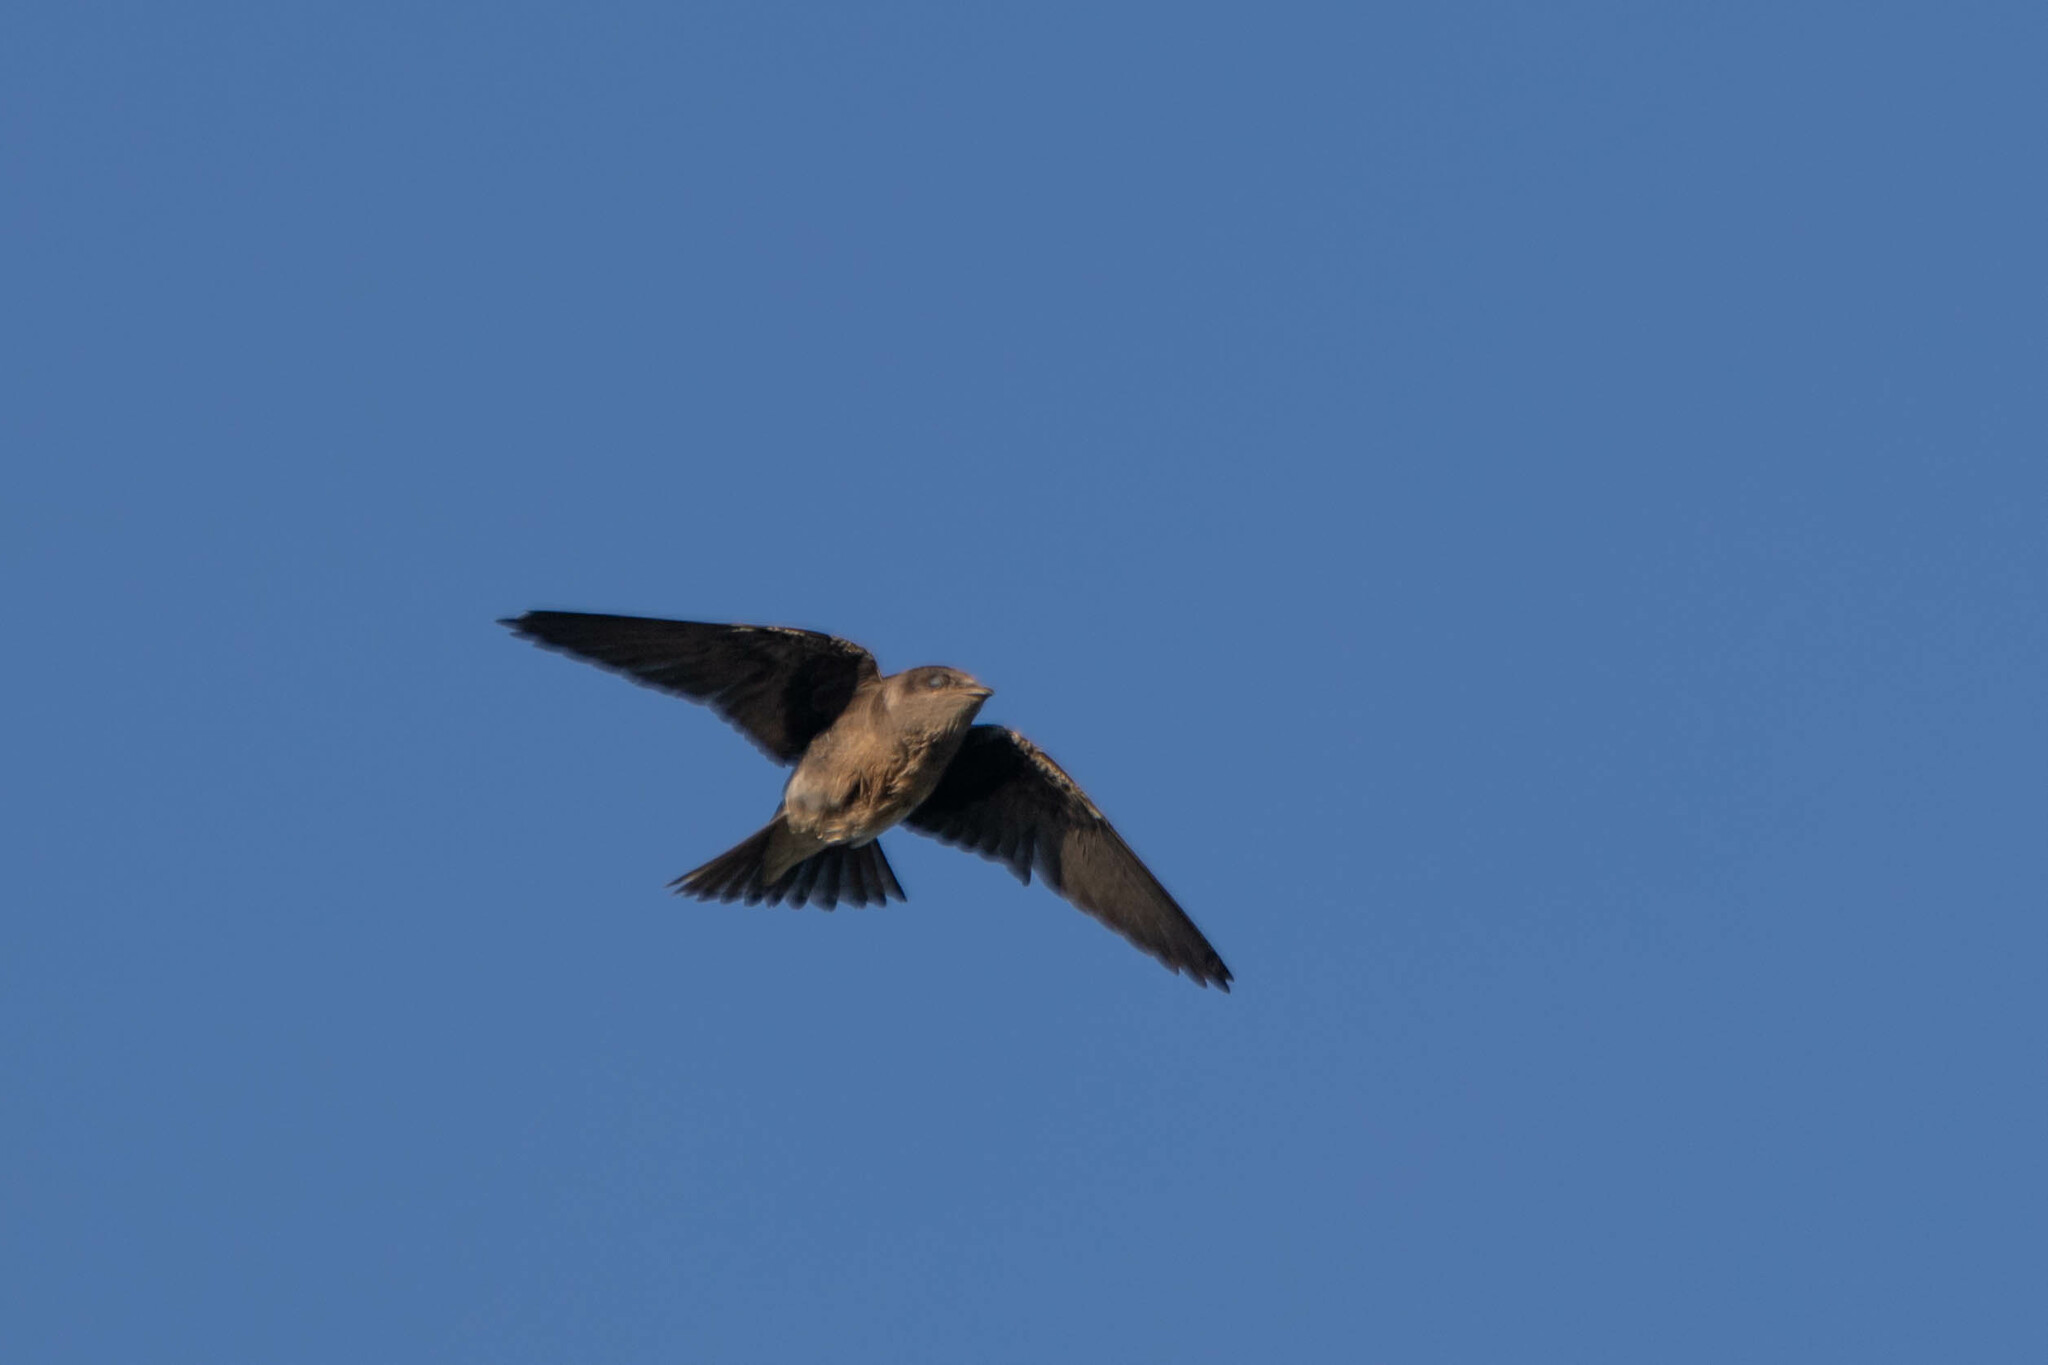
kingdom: Animalia
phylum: Chordata
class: Aves
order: Passeriformes
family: Hirundinidae
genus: Progne
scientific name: Progne subis
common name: Purple martin
